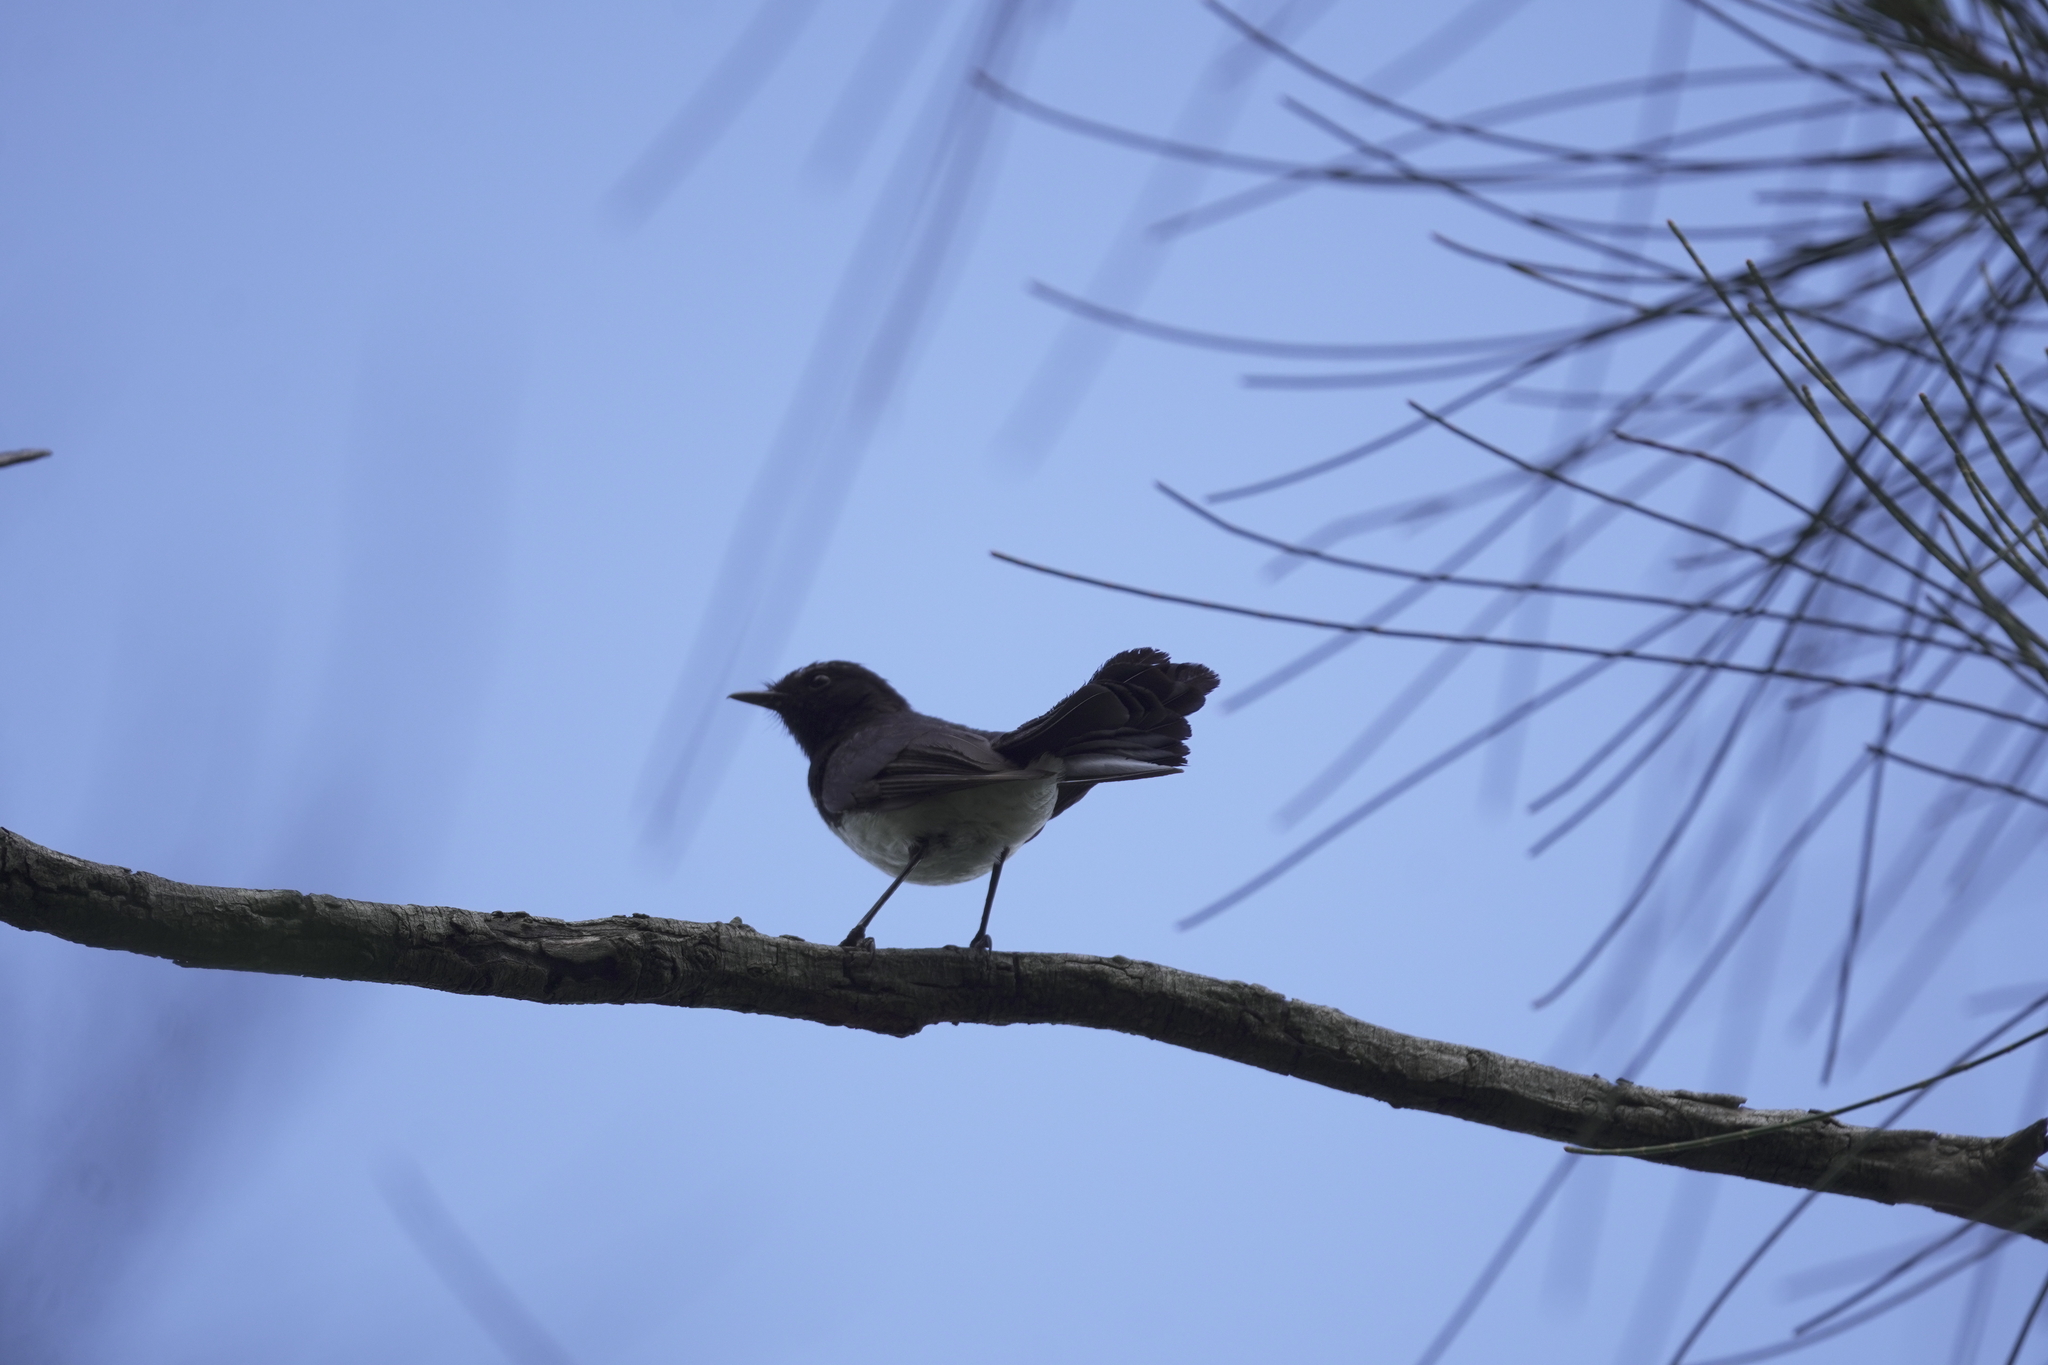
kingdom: Animalia
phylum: Chordata
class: Aves
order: Passeriformes
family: Rhipiduridae
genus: Rhipidura
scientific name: Rhipidura leucophrys
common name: Willie wagtail
